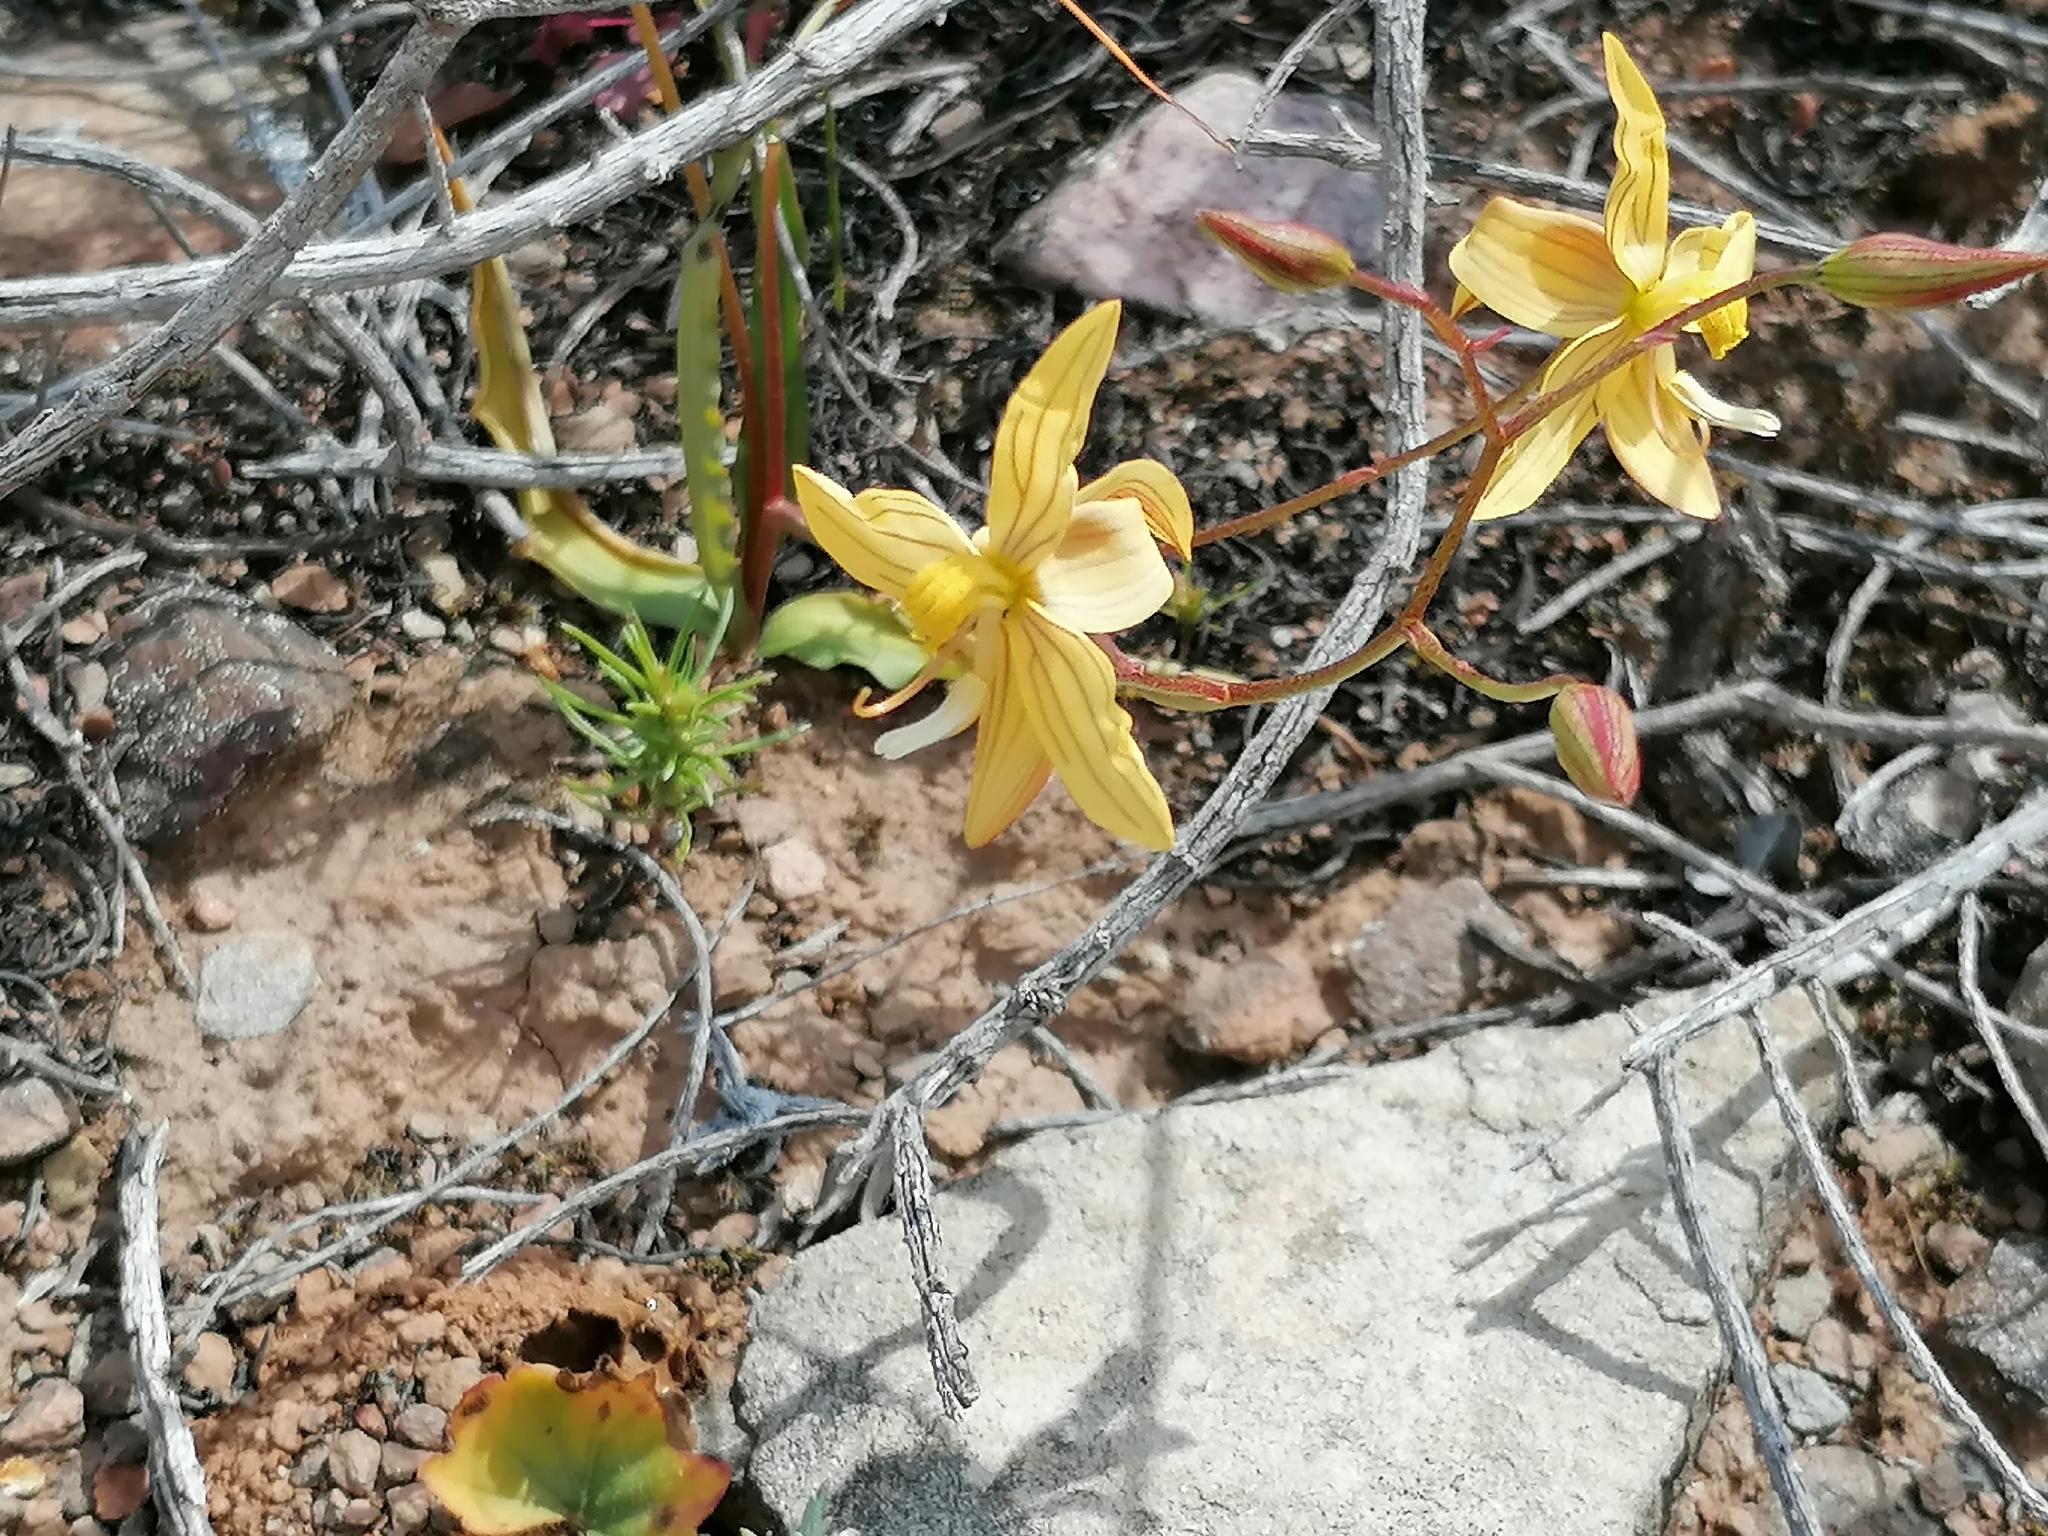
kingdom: Plantae
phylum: Tracheophyta
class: Liliopsida
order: Asparagales
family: Tecophilaeaceae
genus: Cyanella
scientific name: Cyanella lutea
